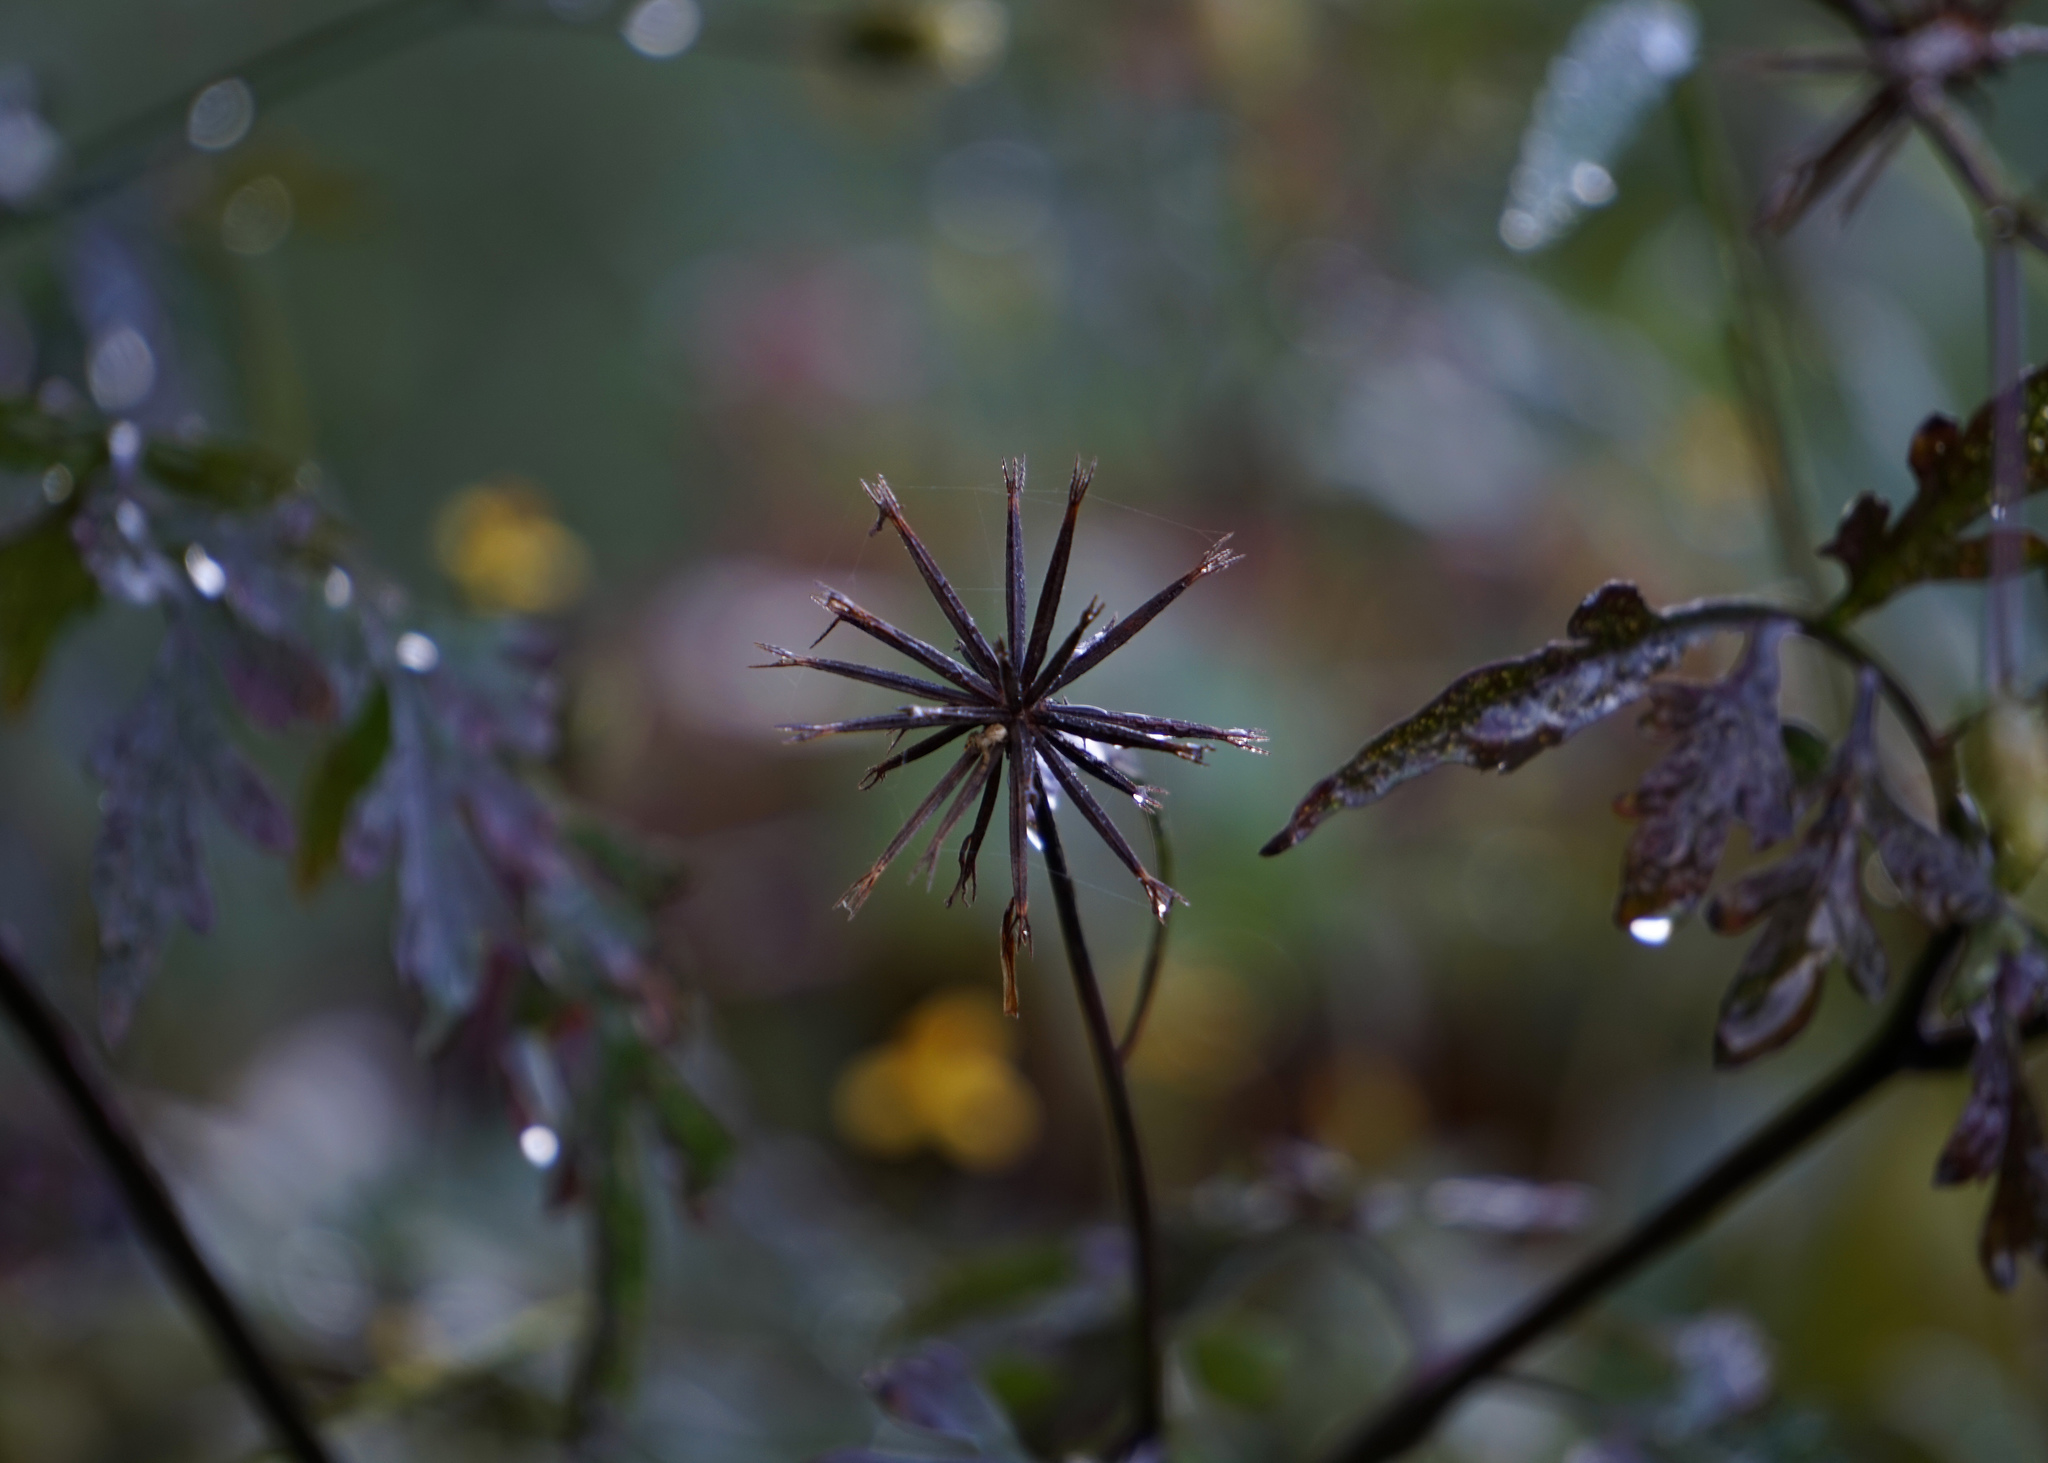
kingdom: Plantae
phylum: Tracheophyta
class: Magnoliopsida
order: Asterales
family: Asteraceae
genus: Bidens
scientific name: Bidens bipinnata
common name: Spanish-needles
